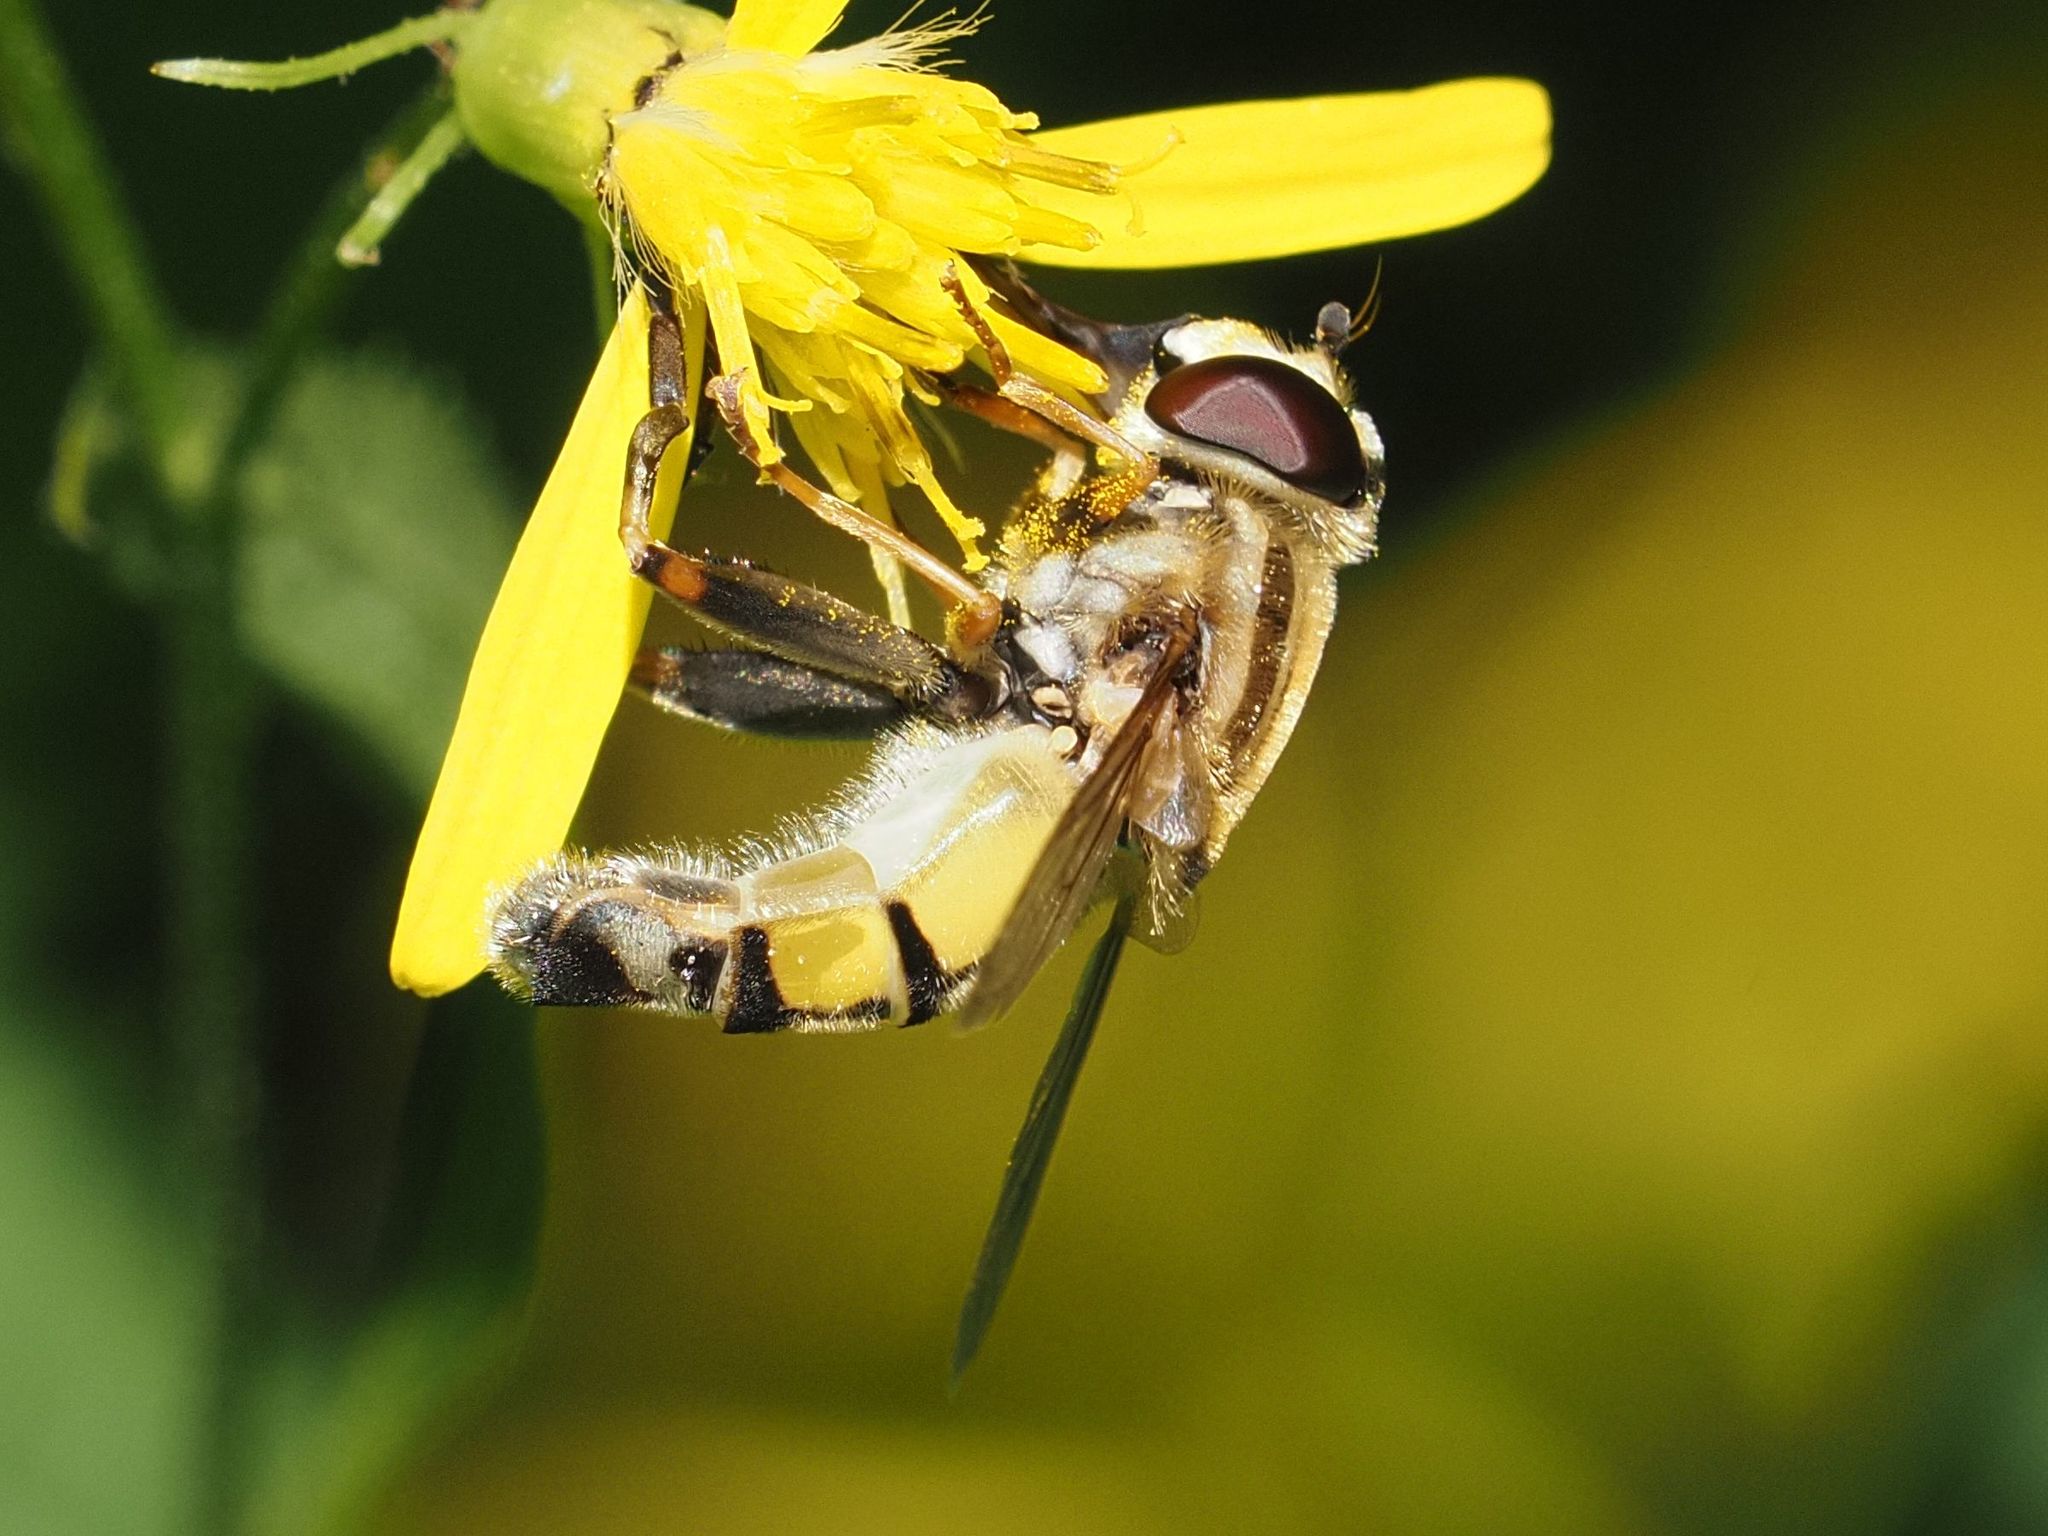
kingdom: Animalia
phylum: Arthropoda
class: Insecta
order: Diptera
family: Syrphidae
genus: Helophilus
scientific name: Helophilus trivittatus
